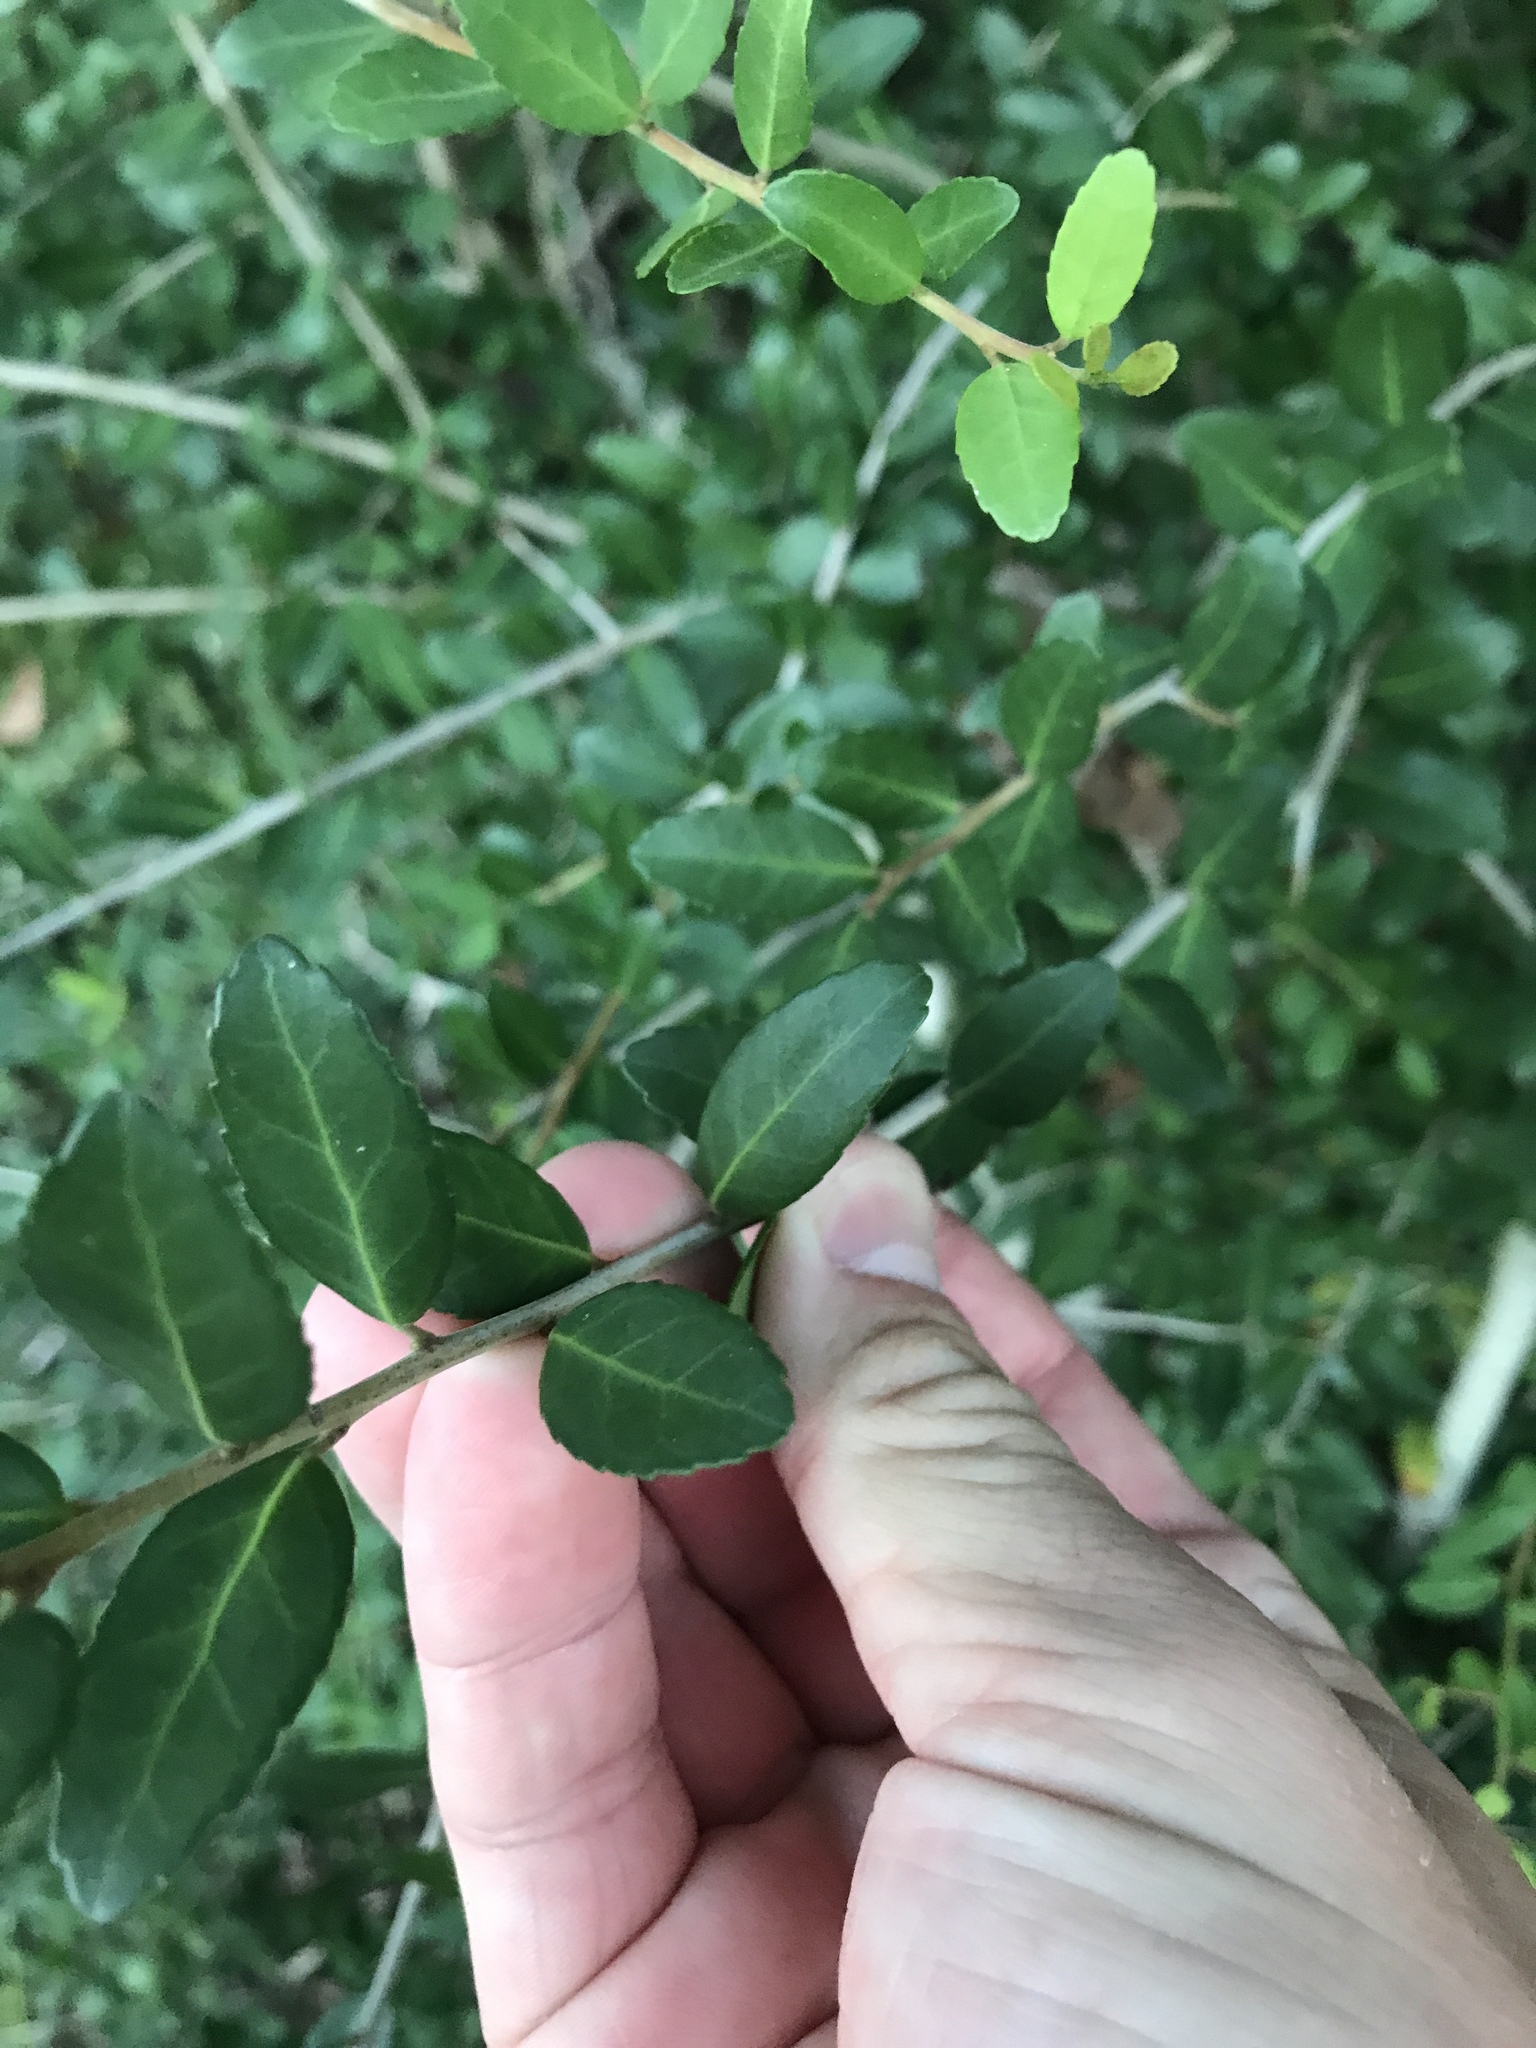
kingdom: Plantae
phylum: Tracheophyta
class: Magnoliopsida
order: Aquifoliales
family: Aquifoliaceae
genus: Ilex
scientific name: Ilex vomitoria
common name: Yaupon holly
